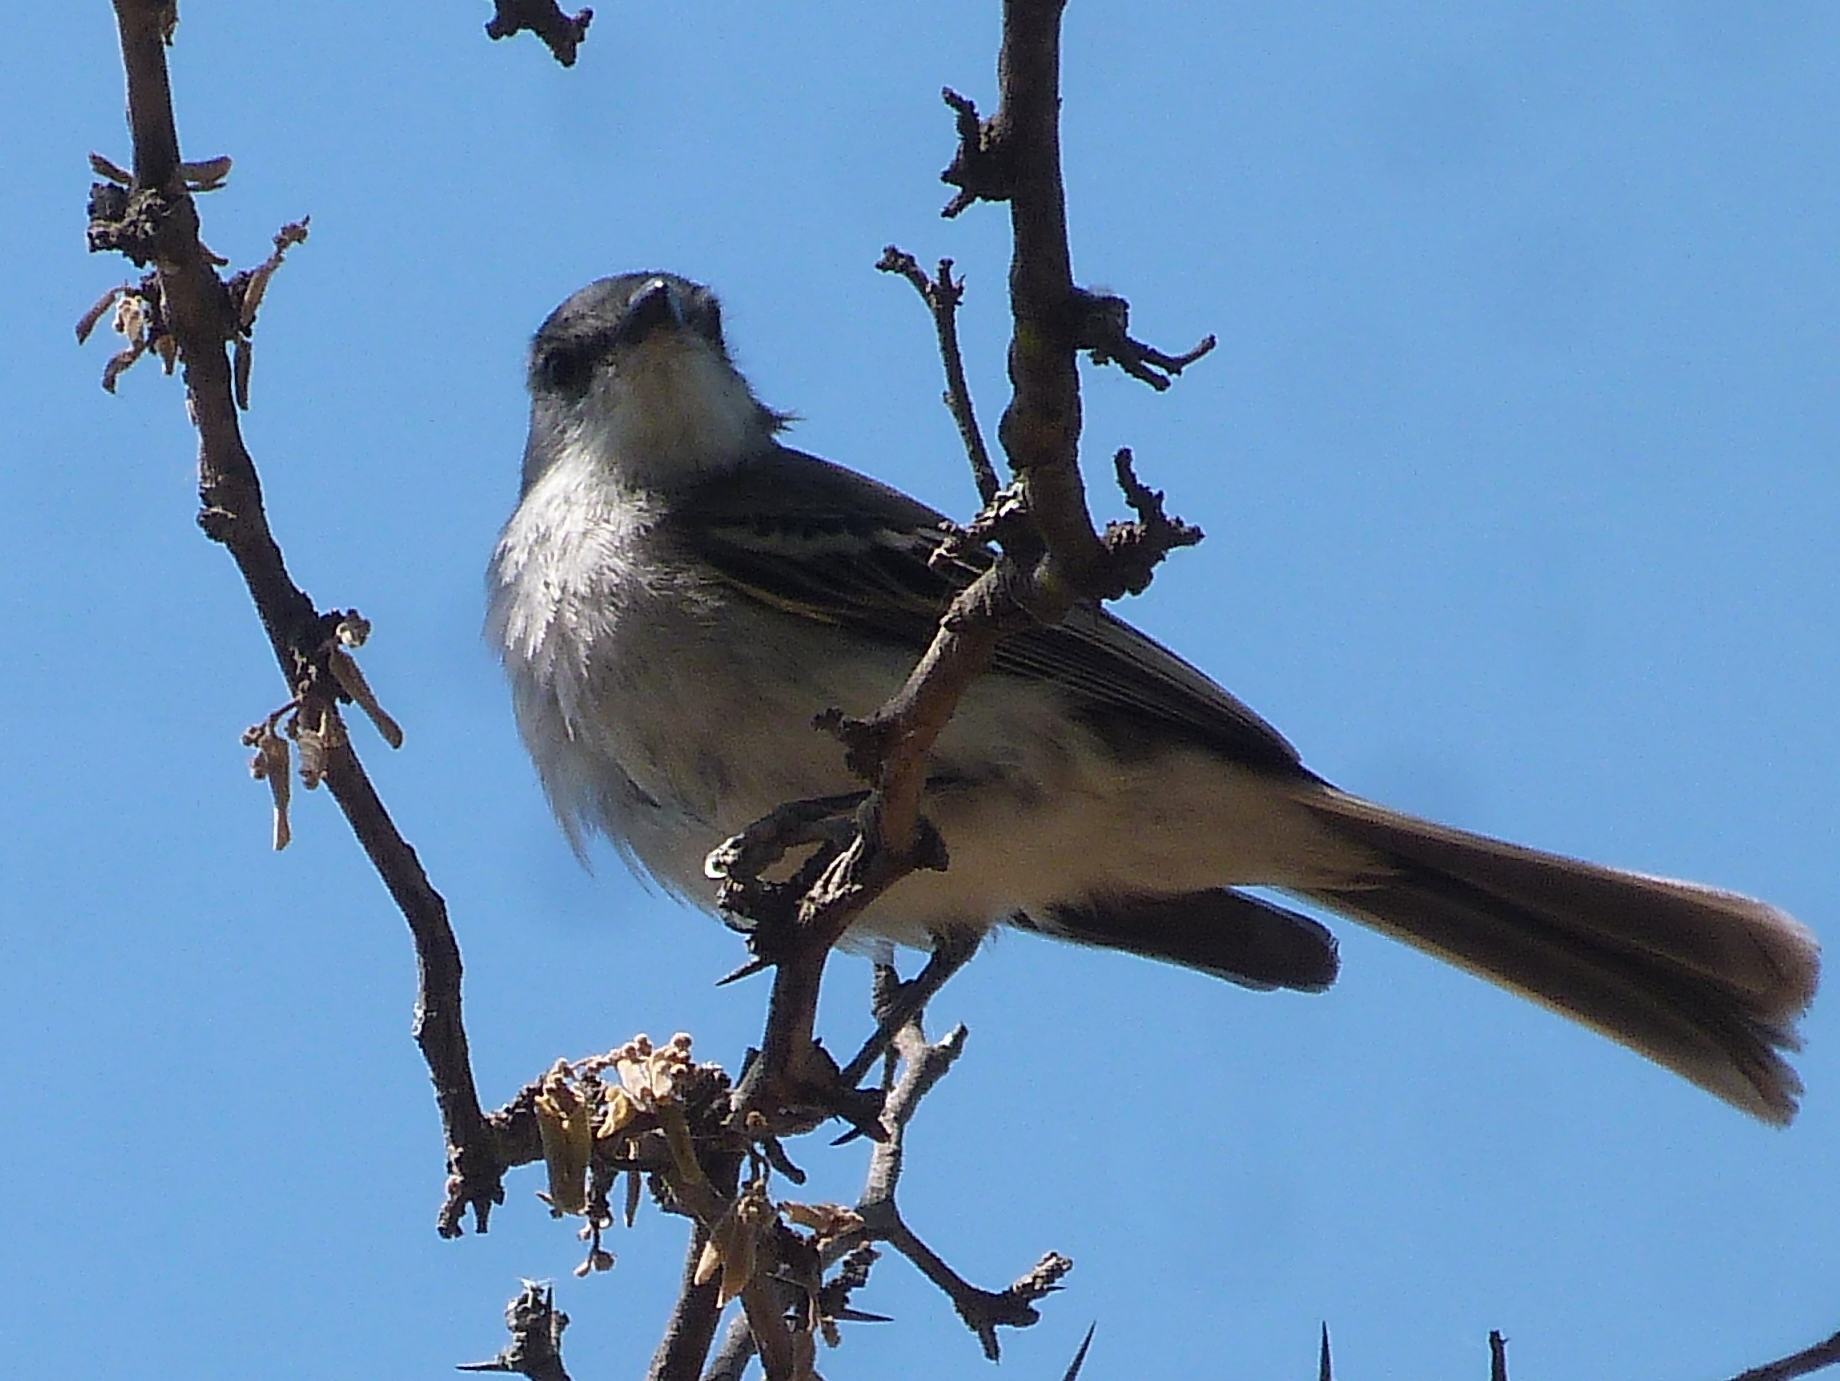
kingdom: Animalia
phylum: Chordata
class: Aves
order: Passeriformes
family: Tyrannidae
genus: Suiriri
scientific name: Suiriri suiriri
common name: Suiriri flycatcher
